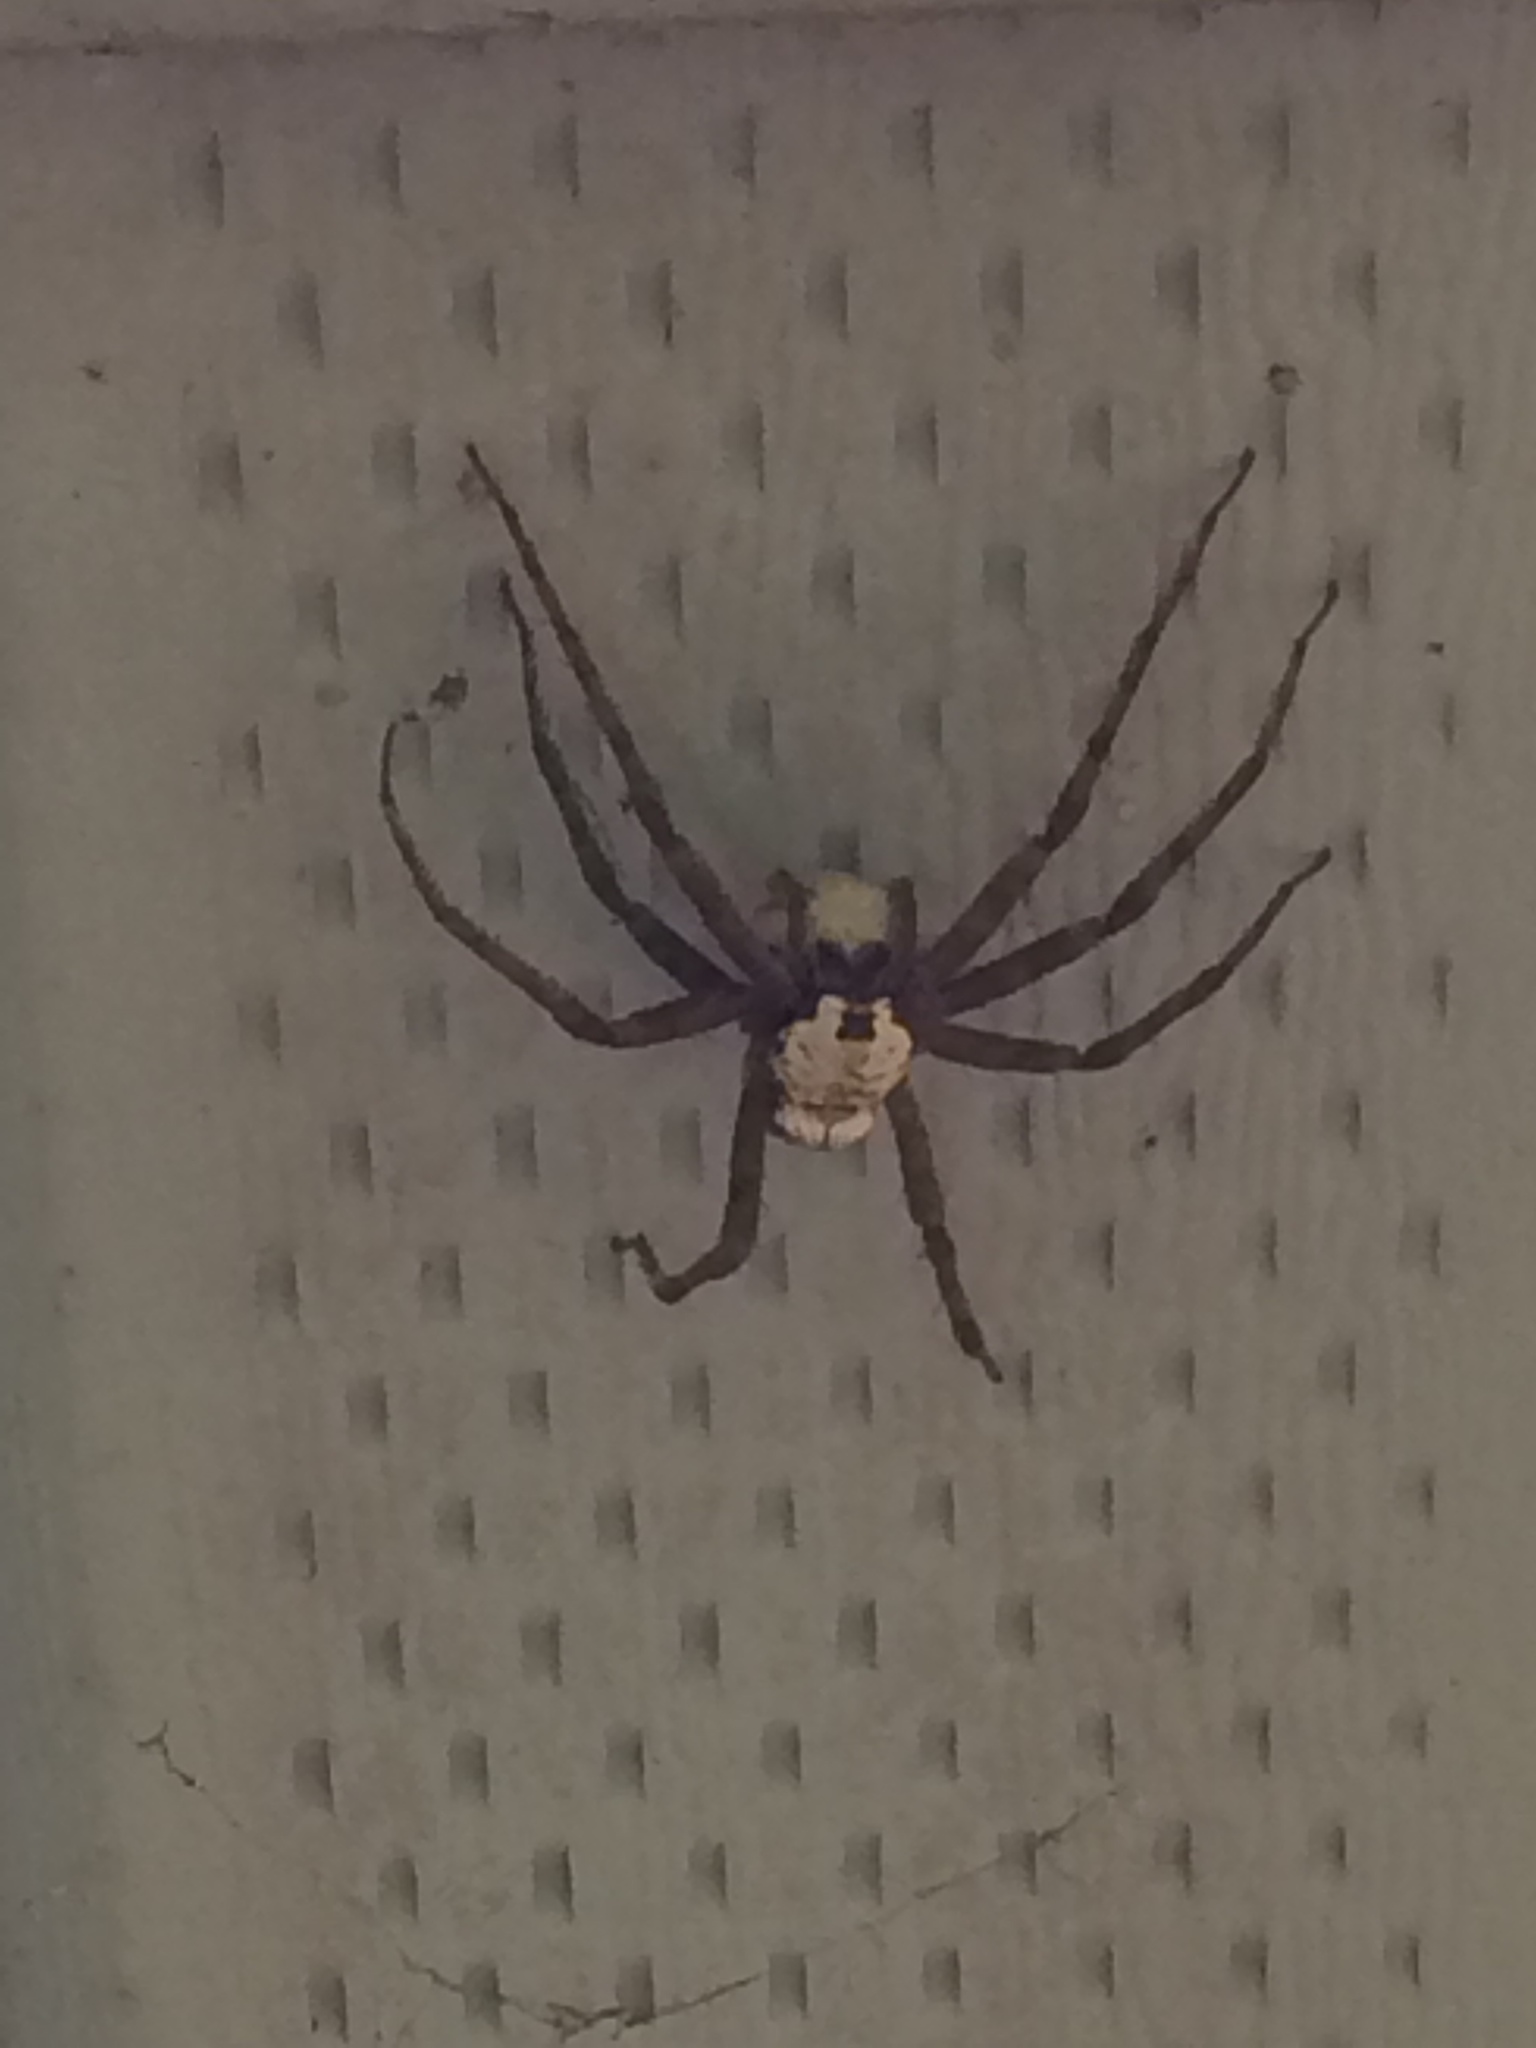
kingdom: Animalia
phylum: Arthropoda
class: Arachnida
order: Araneae
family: Pisauridae
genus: Dolomedes
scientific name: Dolomedes albineus
